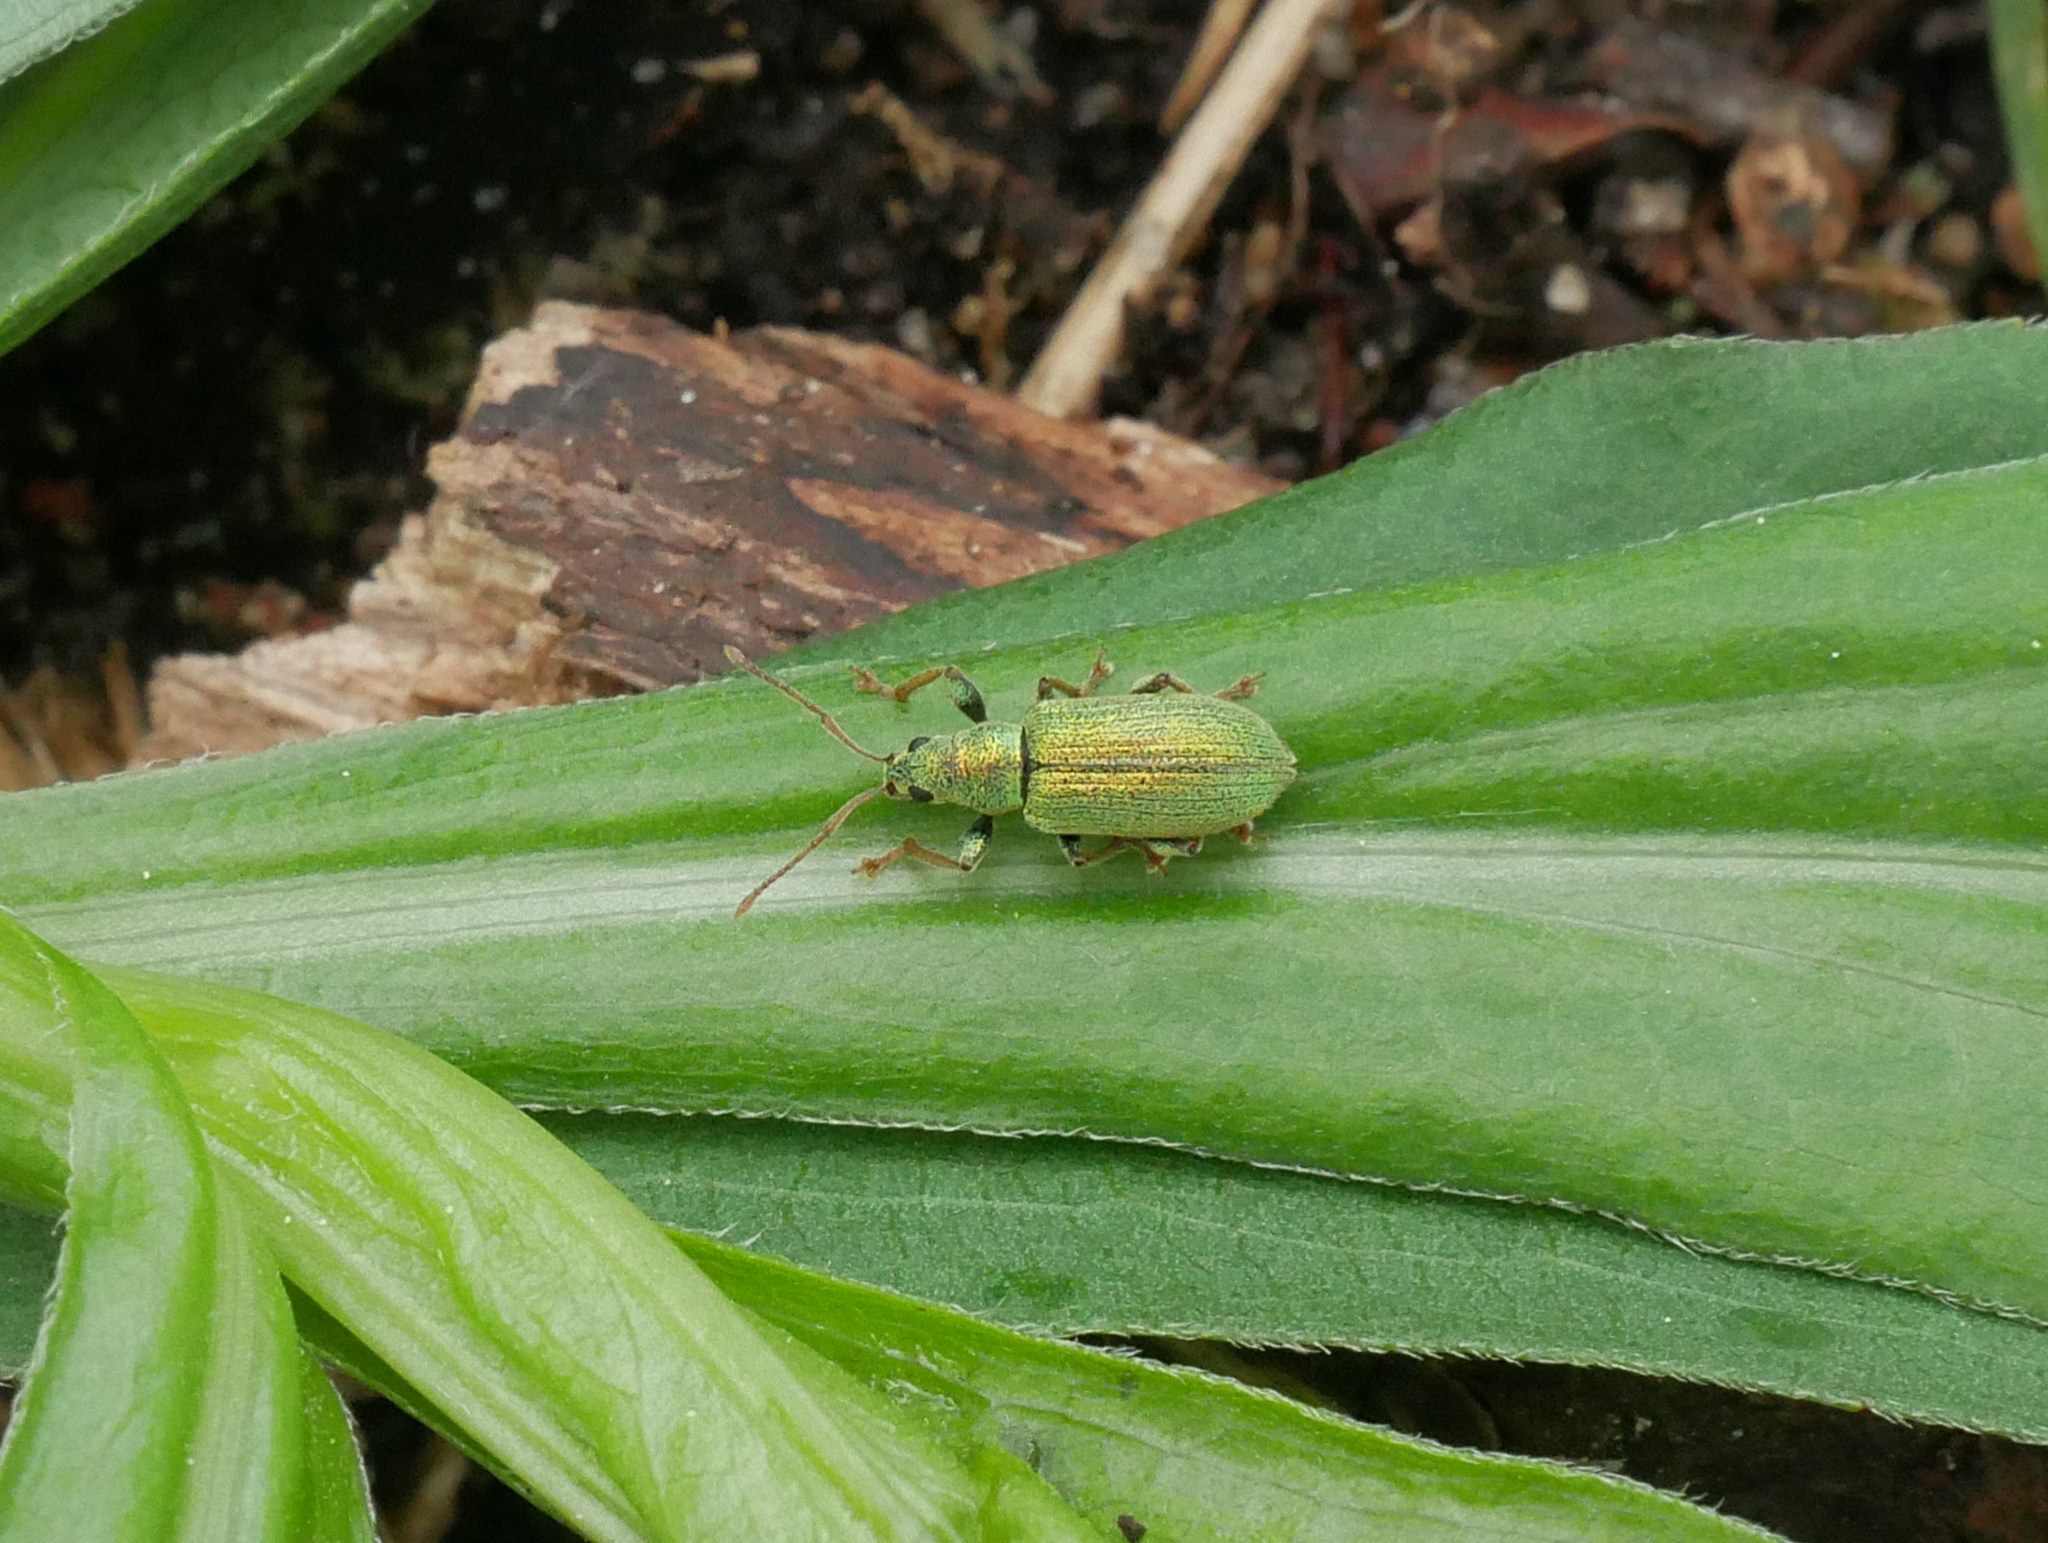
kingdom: Animalia
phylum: Arthropoda
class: Insecta
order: Coleoptera
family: Curculionidae
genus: Phyllobius
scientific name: Phyllobius argentatus
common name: Silver-green leaf weevil
